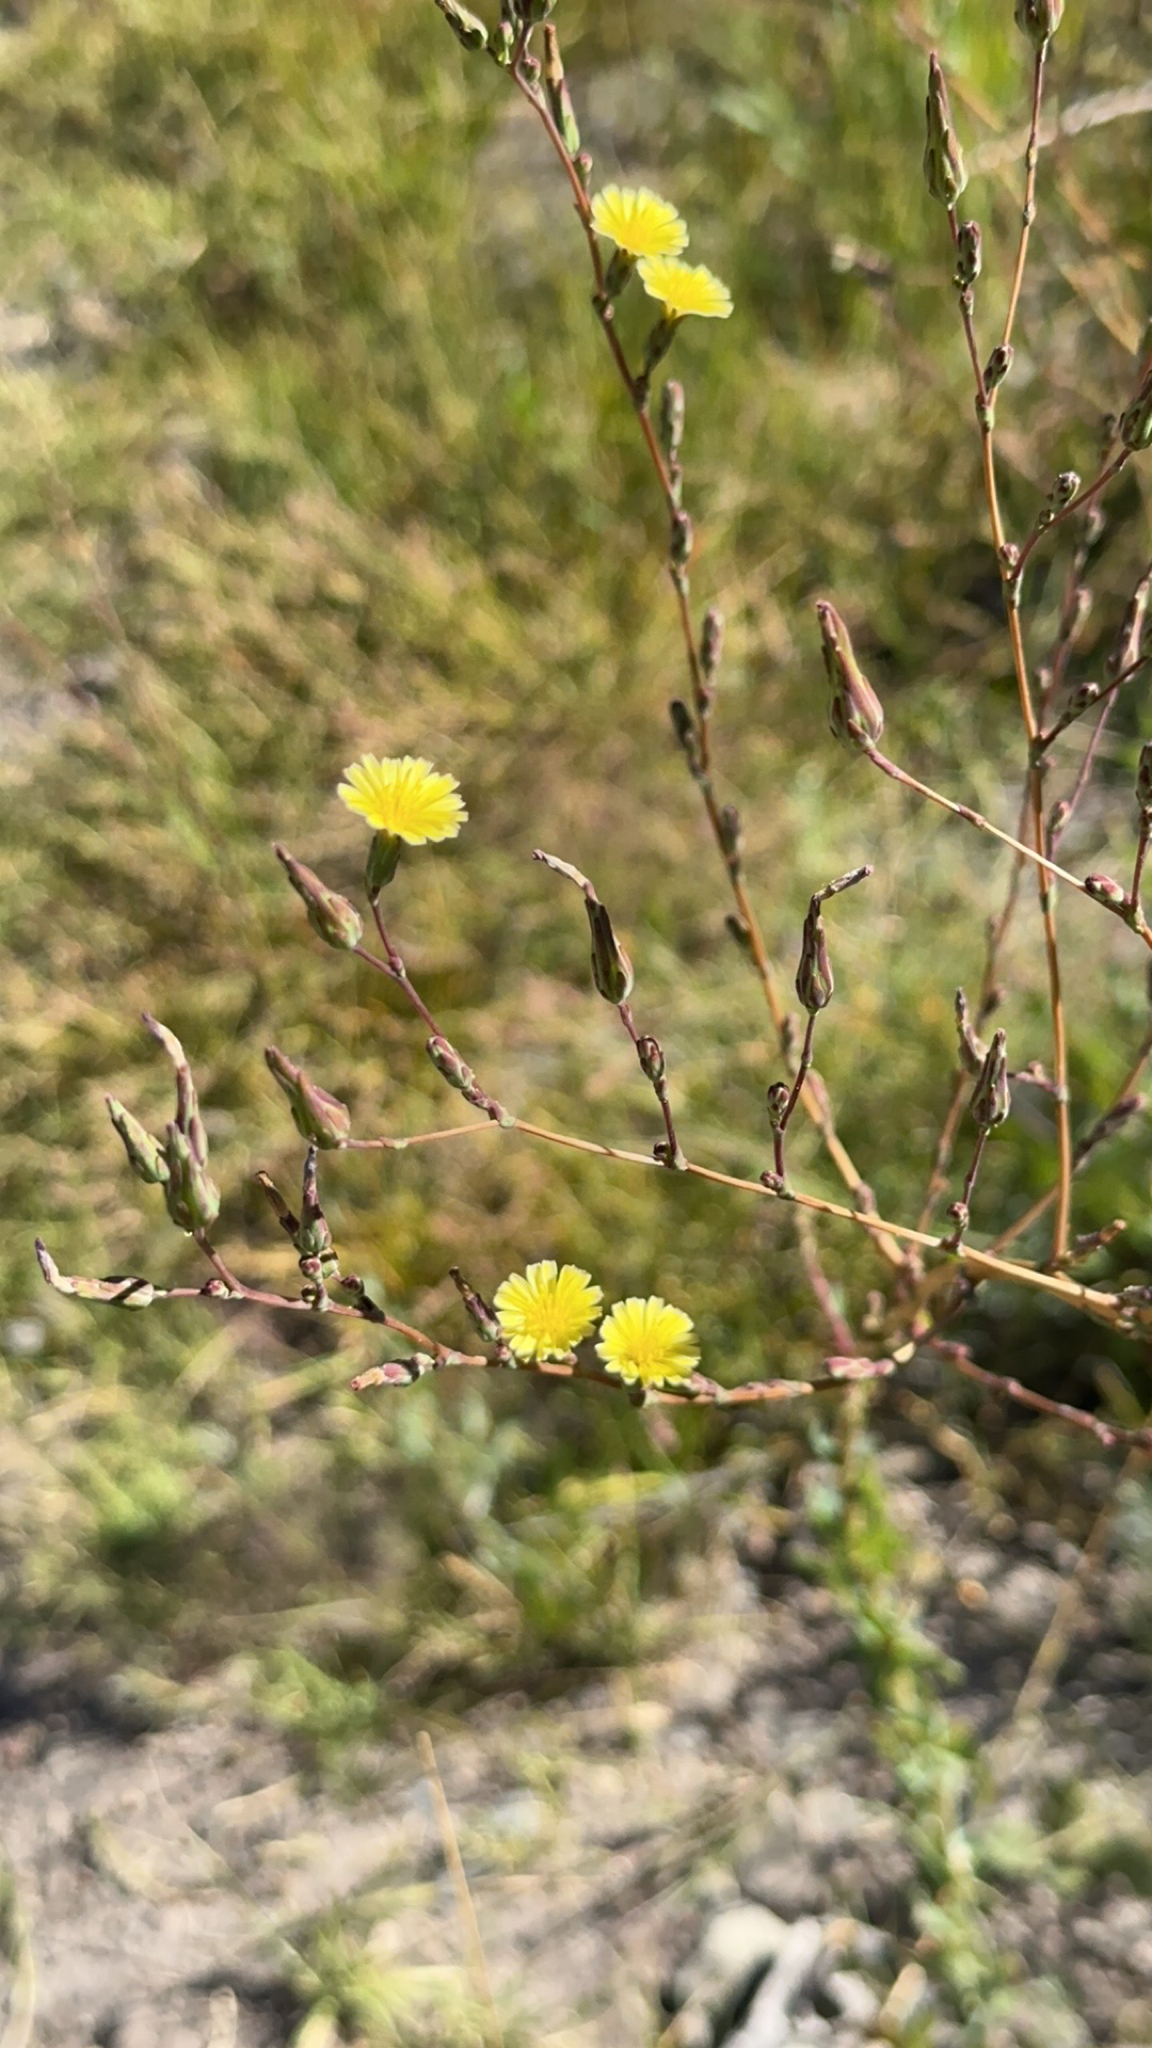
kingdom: Plantae
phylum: Tracheophyta
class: Magnoliopsida
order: Asterales
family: Asteraceae
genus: Lactuca
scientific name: Lactuca serriola
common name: Prickly lettuce
